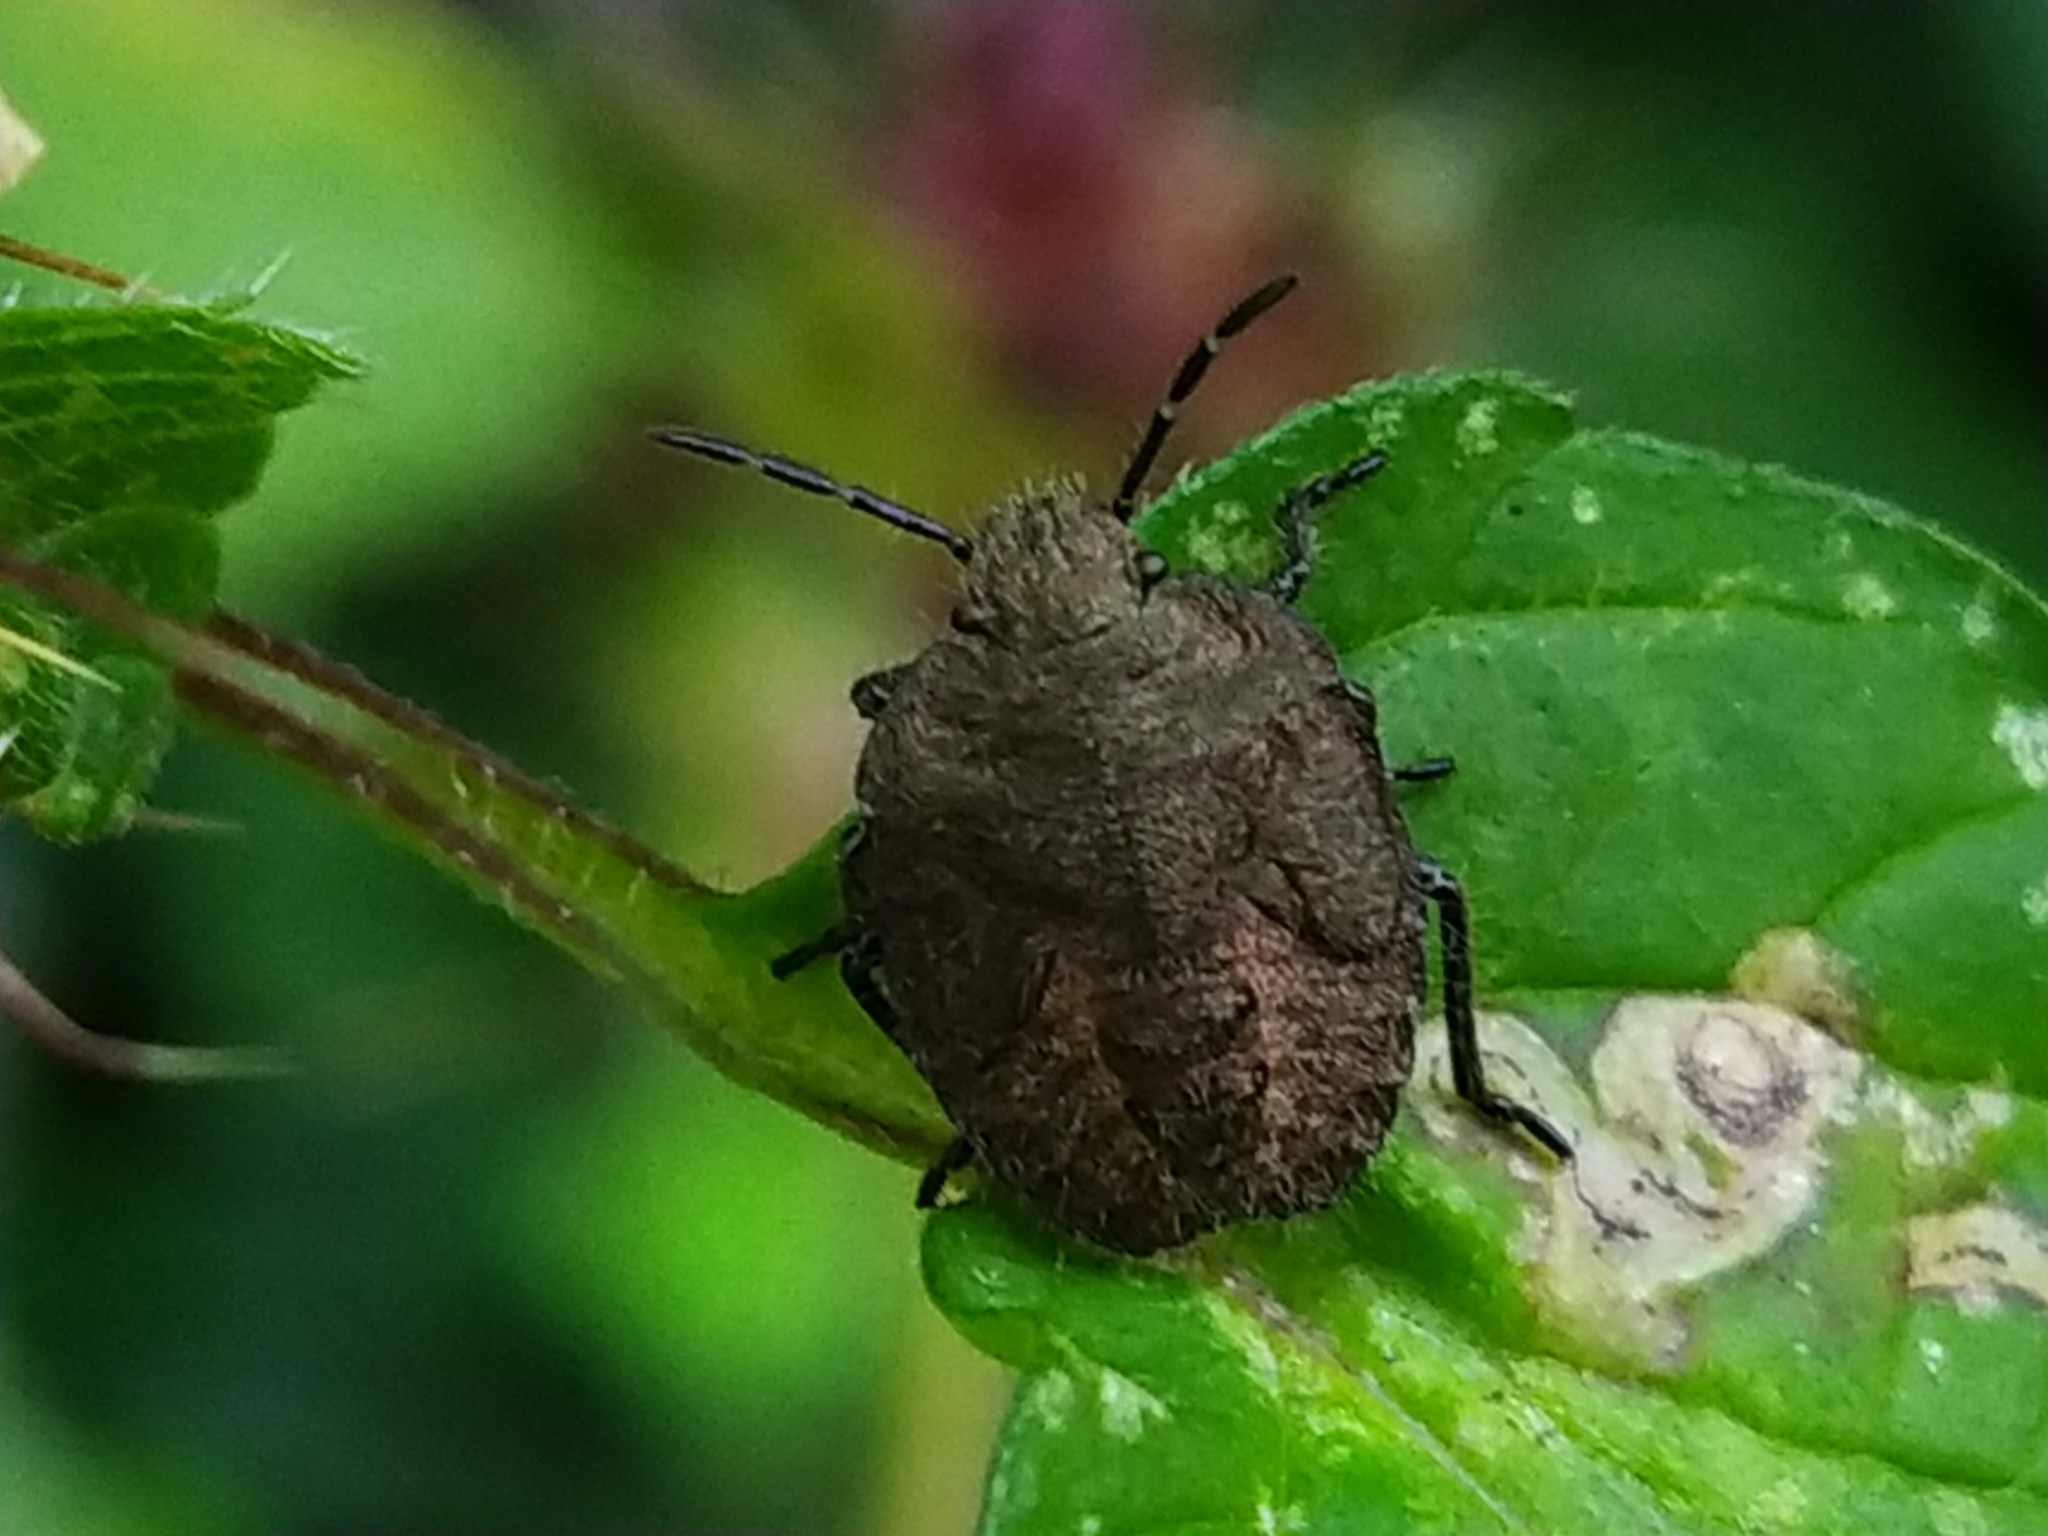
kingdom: Animalia
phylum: Arthropoda
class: Insecta
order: Hemiptera
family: Pentatomidae
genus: Dolycoris
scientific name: Dolycoris baccarum
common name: Sloe bug
